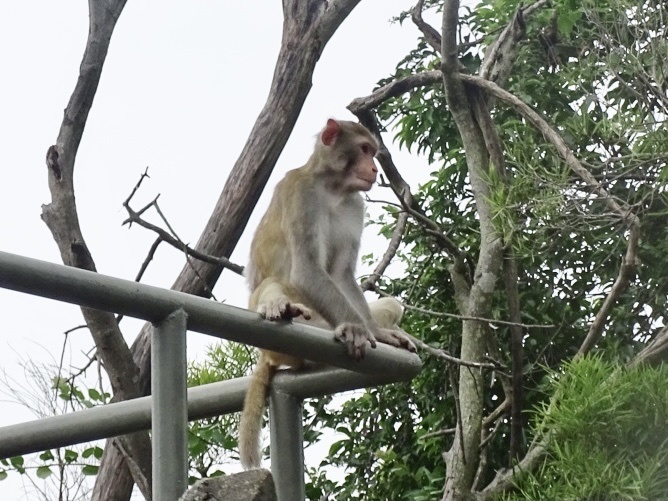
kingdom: Animalia
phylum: Chordata
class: Mammalia
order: Primates
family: Cercopithecidae
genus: Macaca
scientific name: Macaca mulatta
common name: Rhesus monkey
